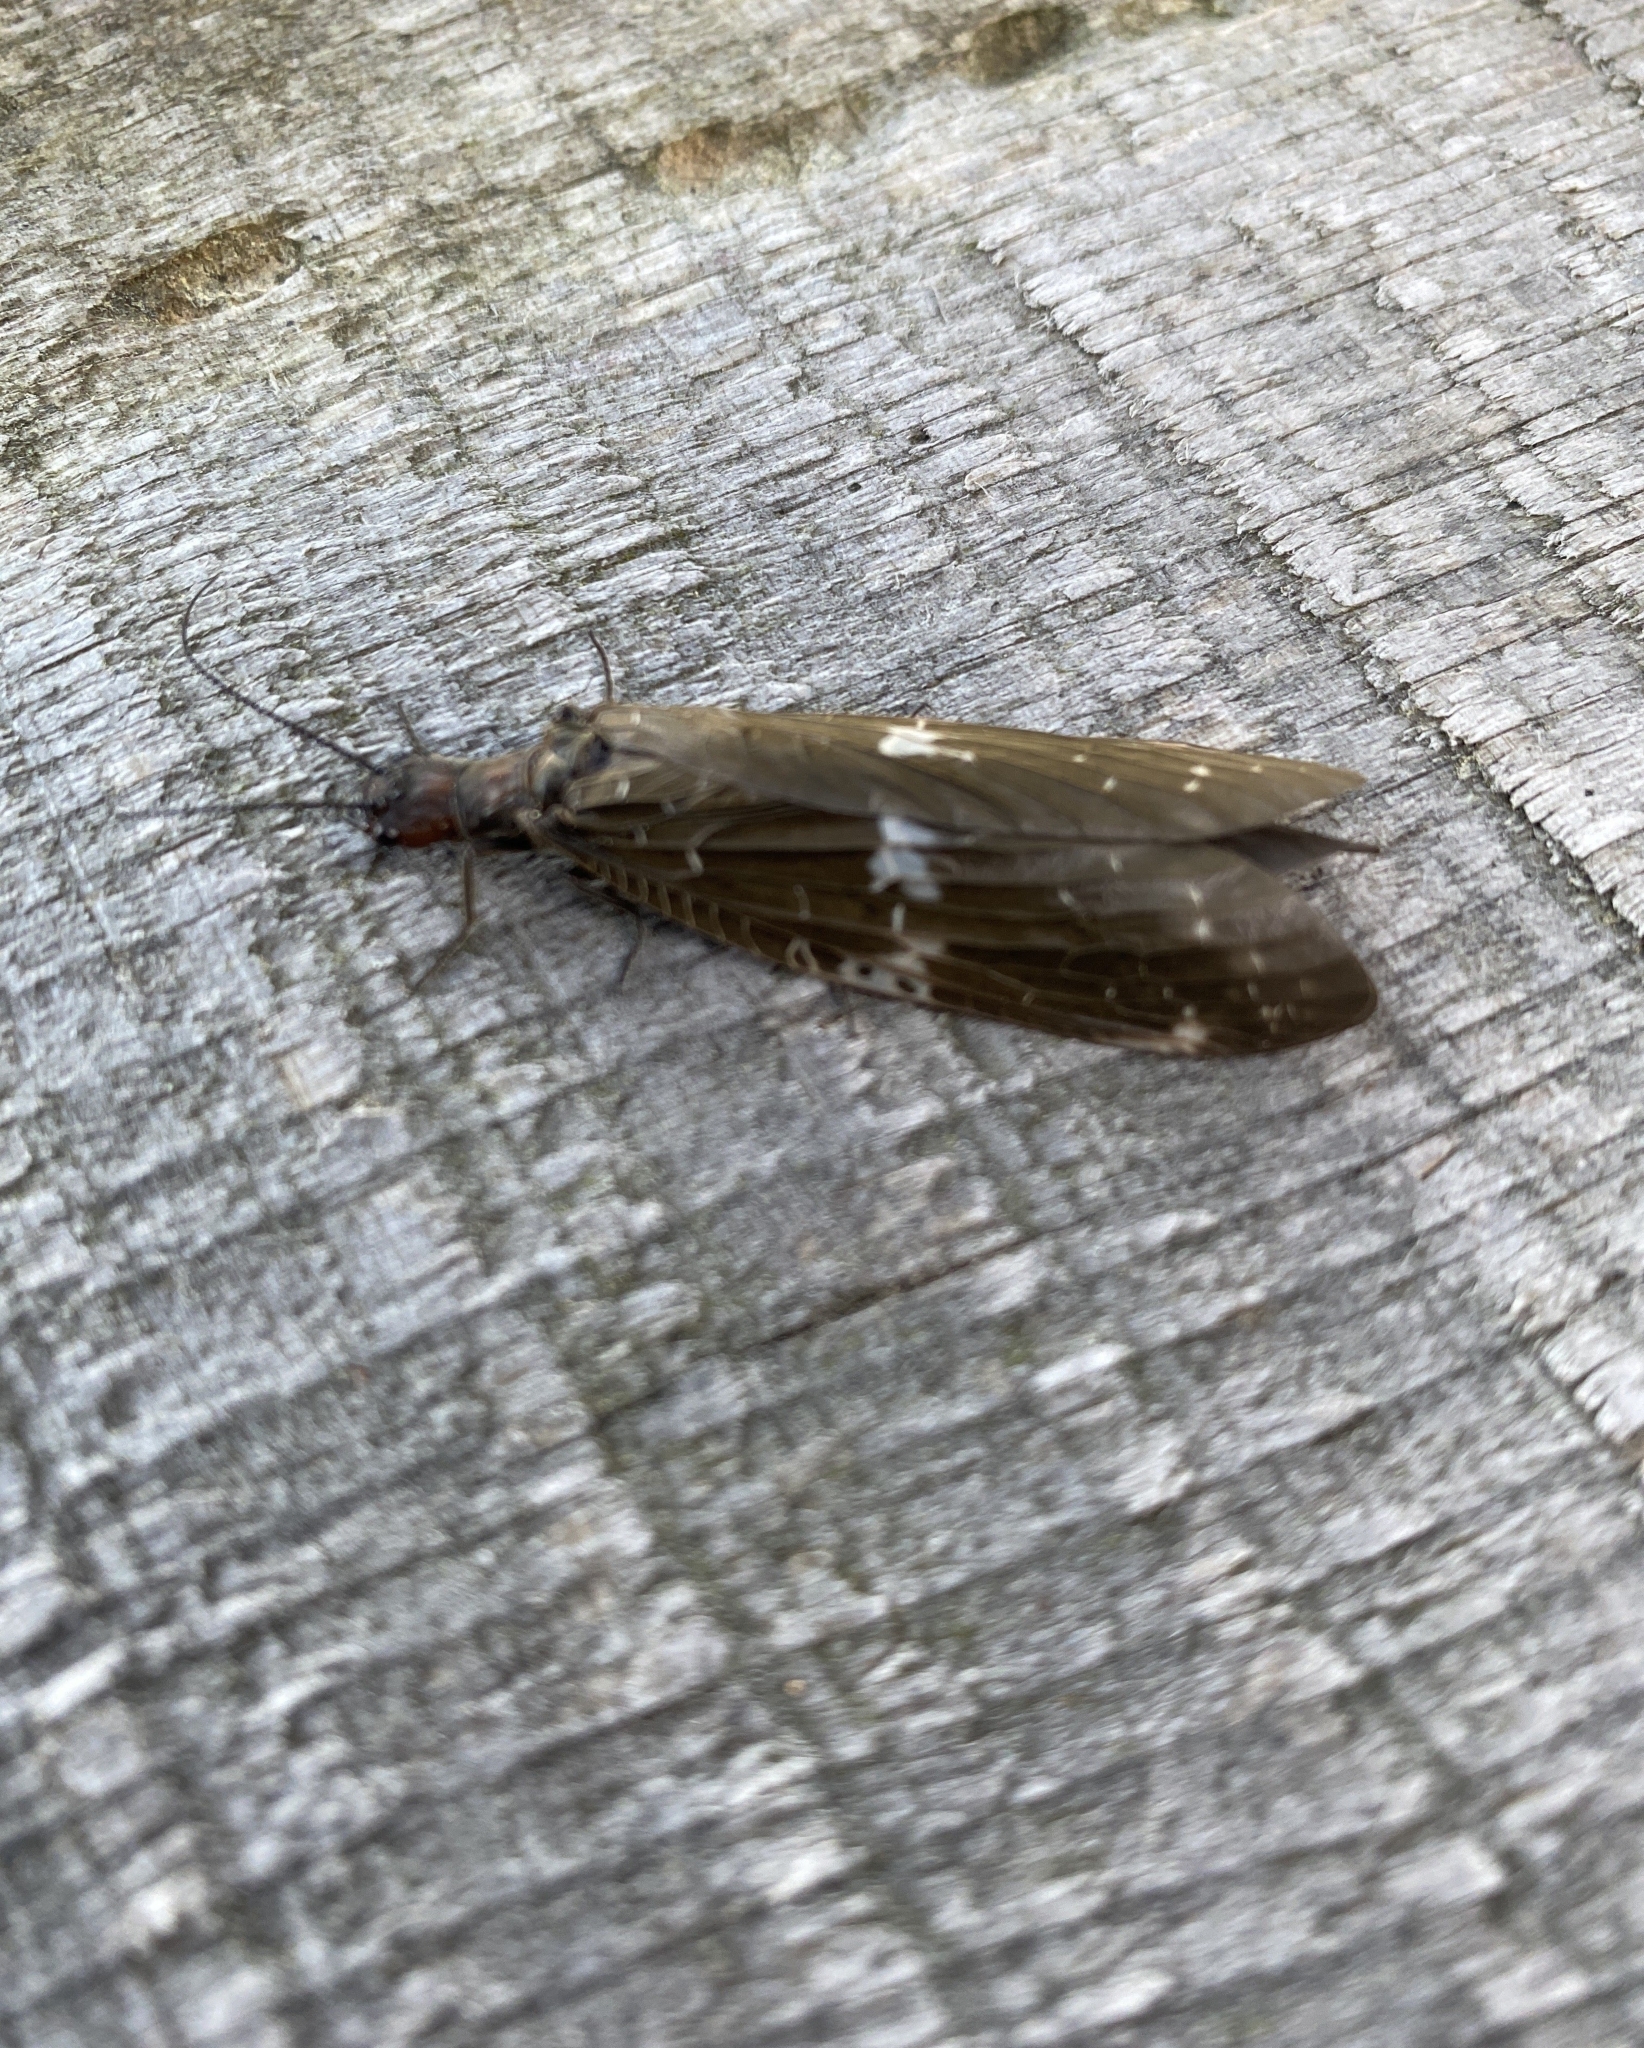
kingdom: Animalia
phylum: Arthropoda
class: Insecta
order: Megaloptera
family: Corydalidae
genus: Nigronia
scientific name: Nigronia serricornis
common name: Serrate dark fishfly
